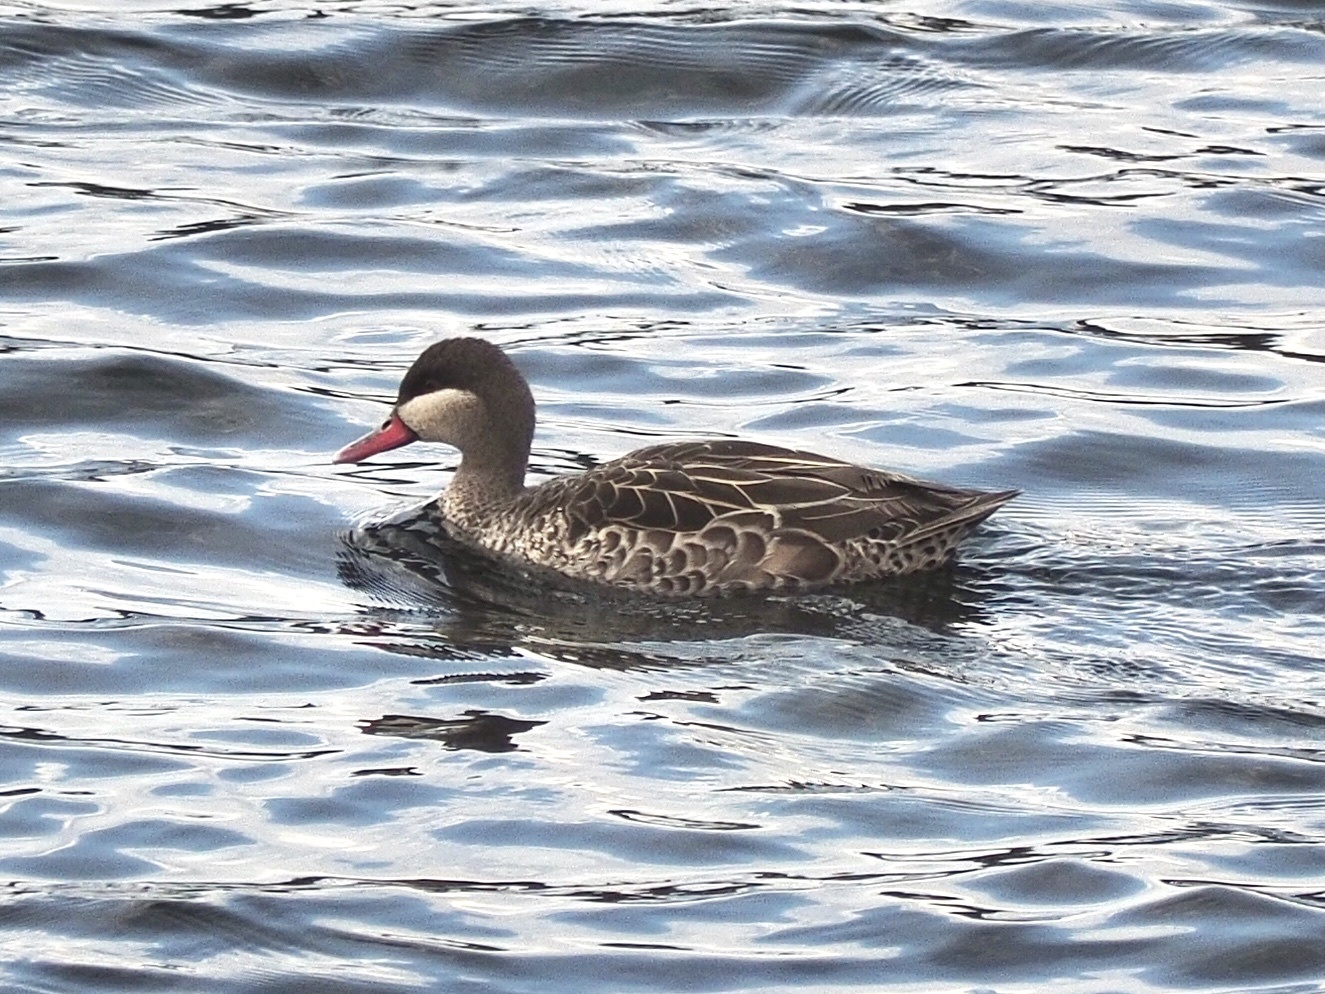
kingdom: Animalia
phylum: Chordata
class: Aves
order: Anseriformes
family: Anatidae
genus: Anas
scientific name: Anas erythrorhyncha
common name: Red-billed teal
